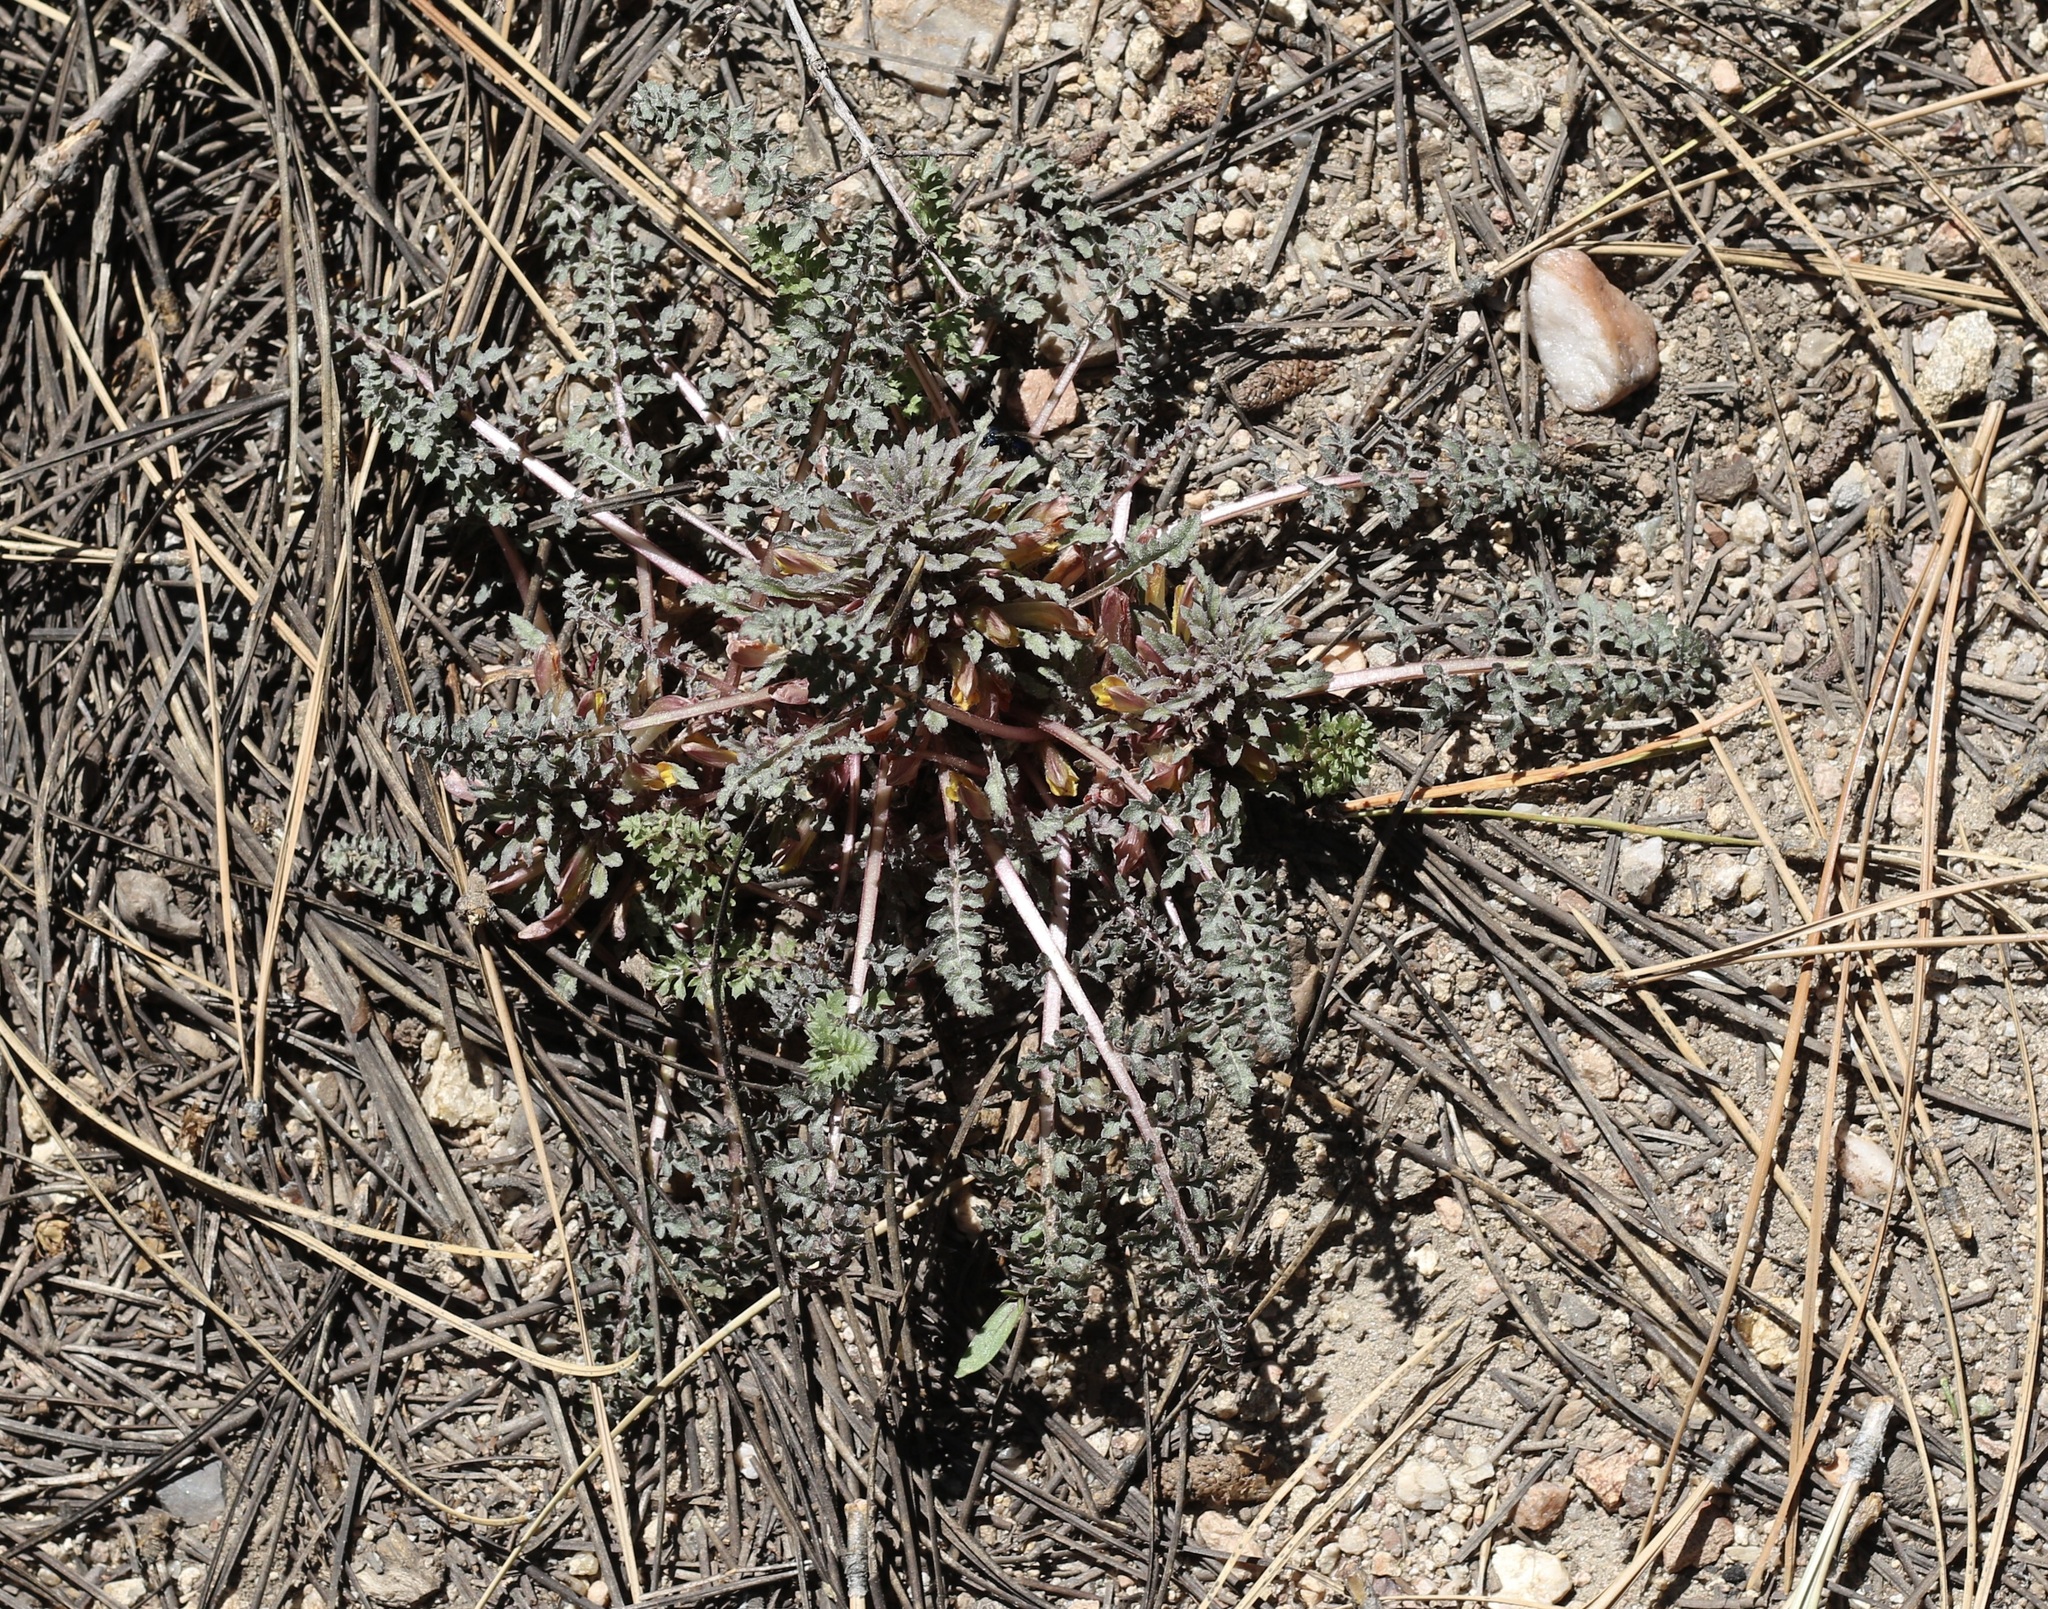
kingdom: Plantae
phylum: Tracheophyta
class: Magnoliopsida
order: Lamiales
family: Orobanchaceae
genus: Pedicularis
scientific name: Pedicularis semibarbata
